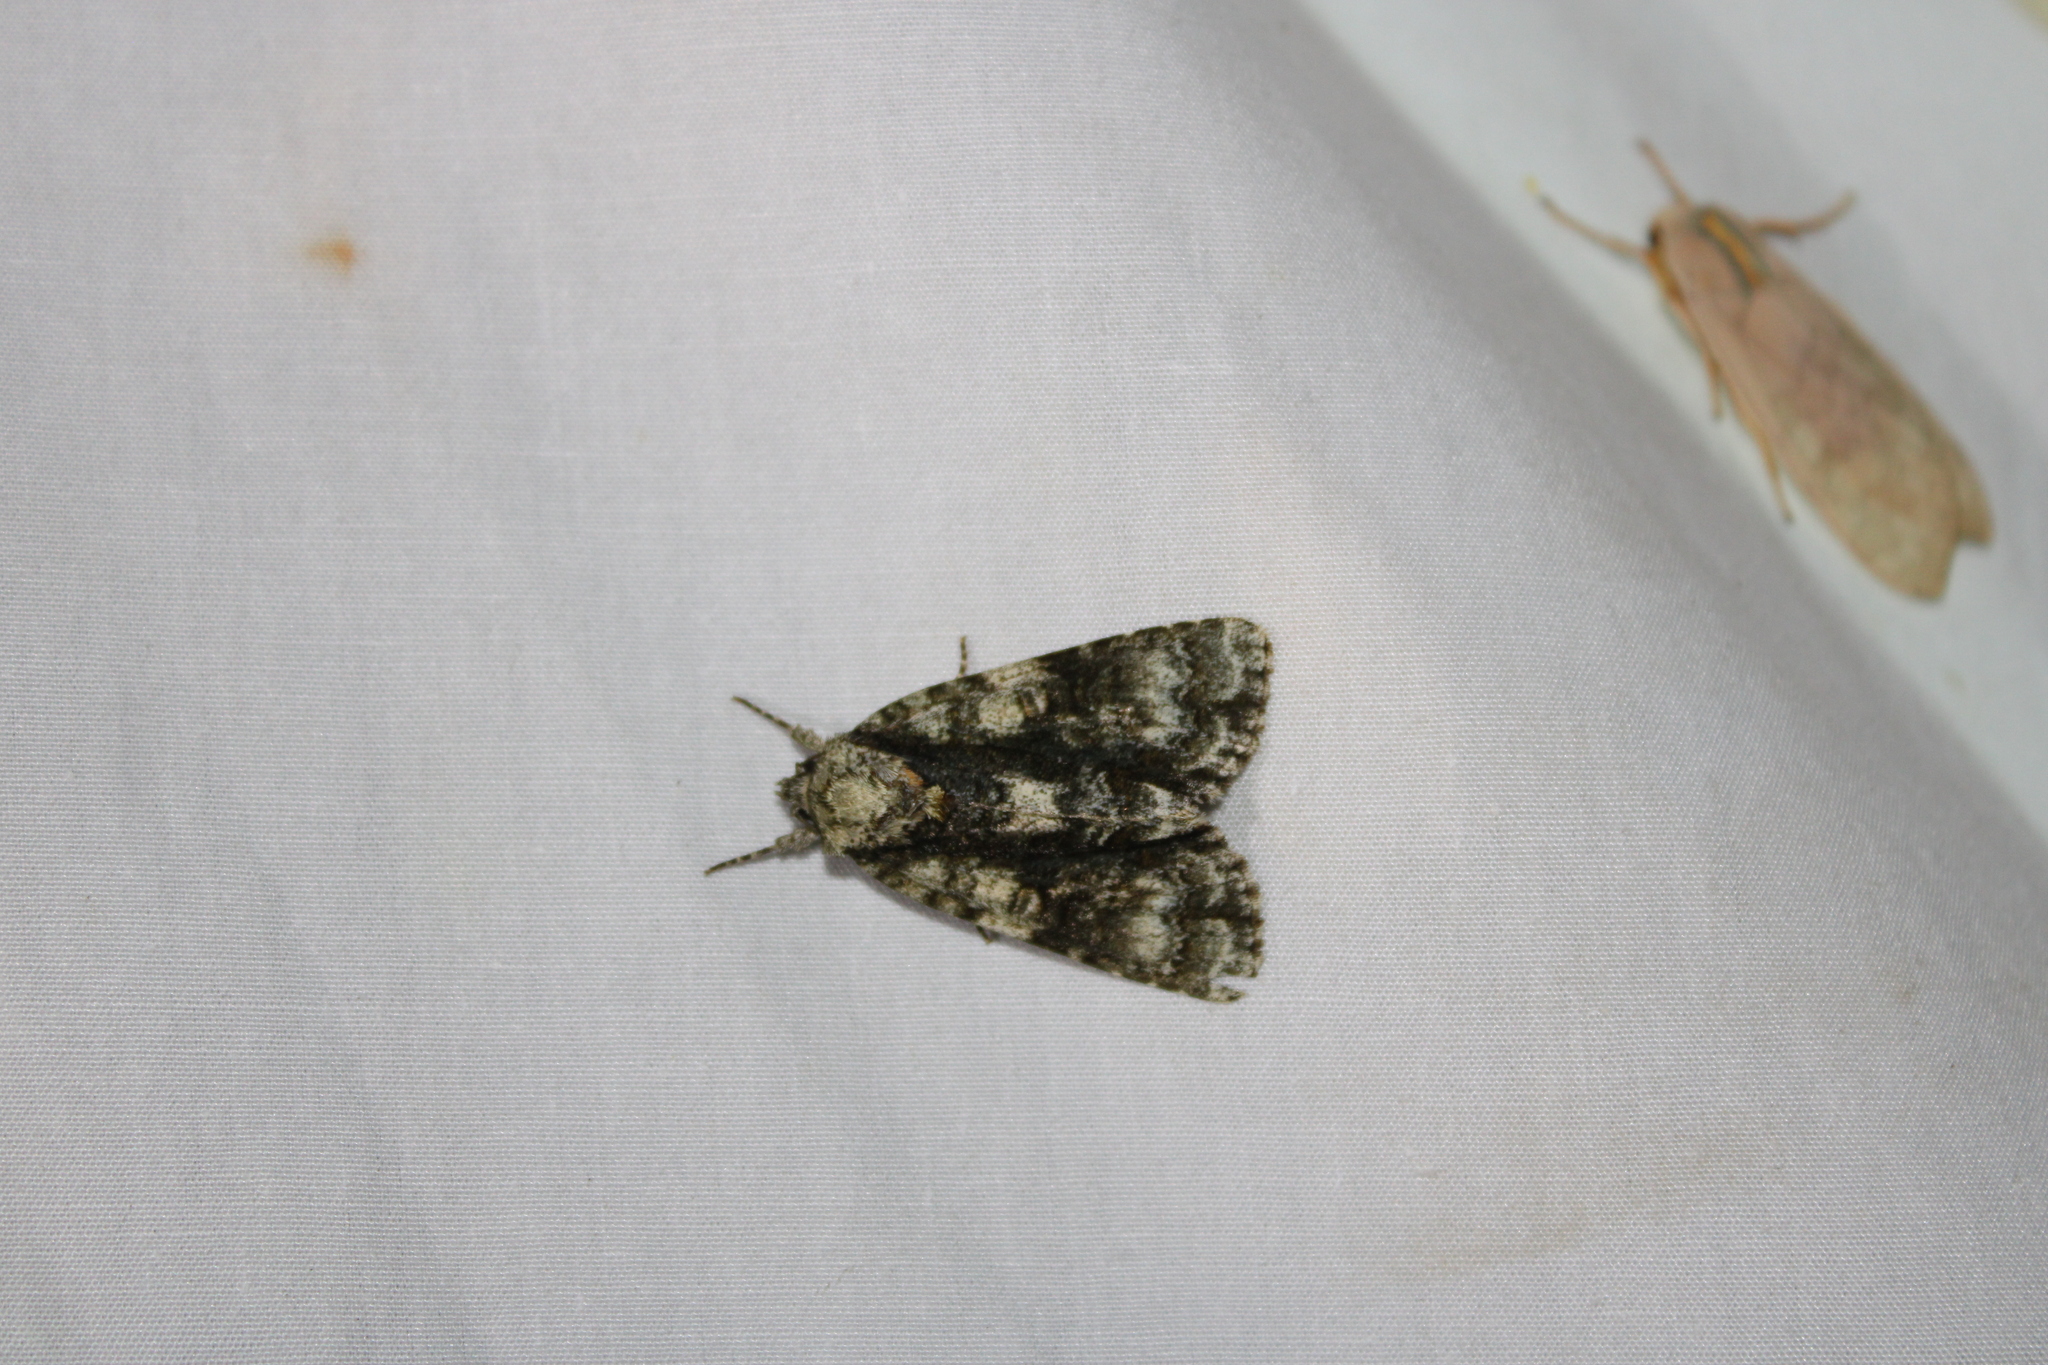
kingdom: Animalia
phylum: Arthropoda
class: Insecta
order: Lepidoptera
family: Noctuidae
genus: Acronicta
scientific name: Acronicta superans
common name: Splendid dagger
